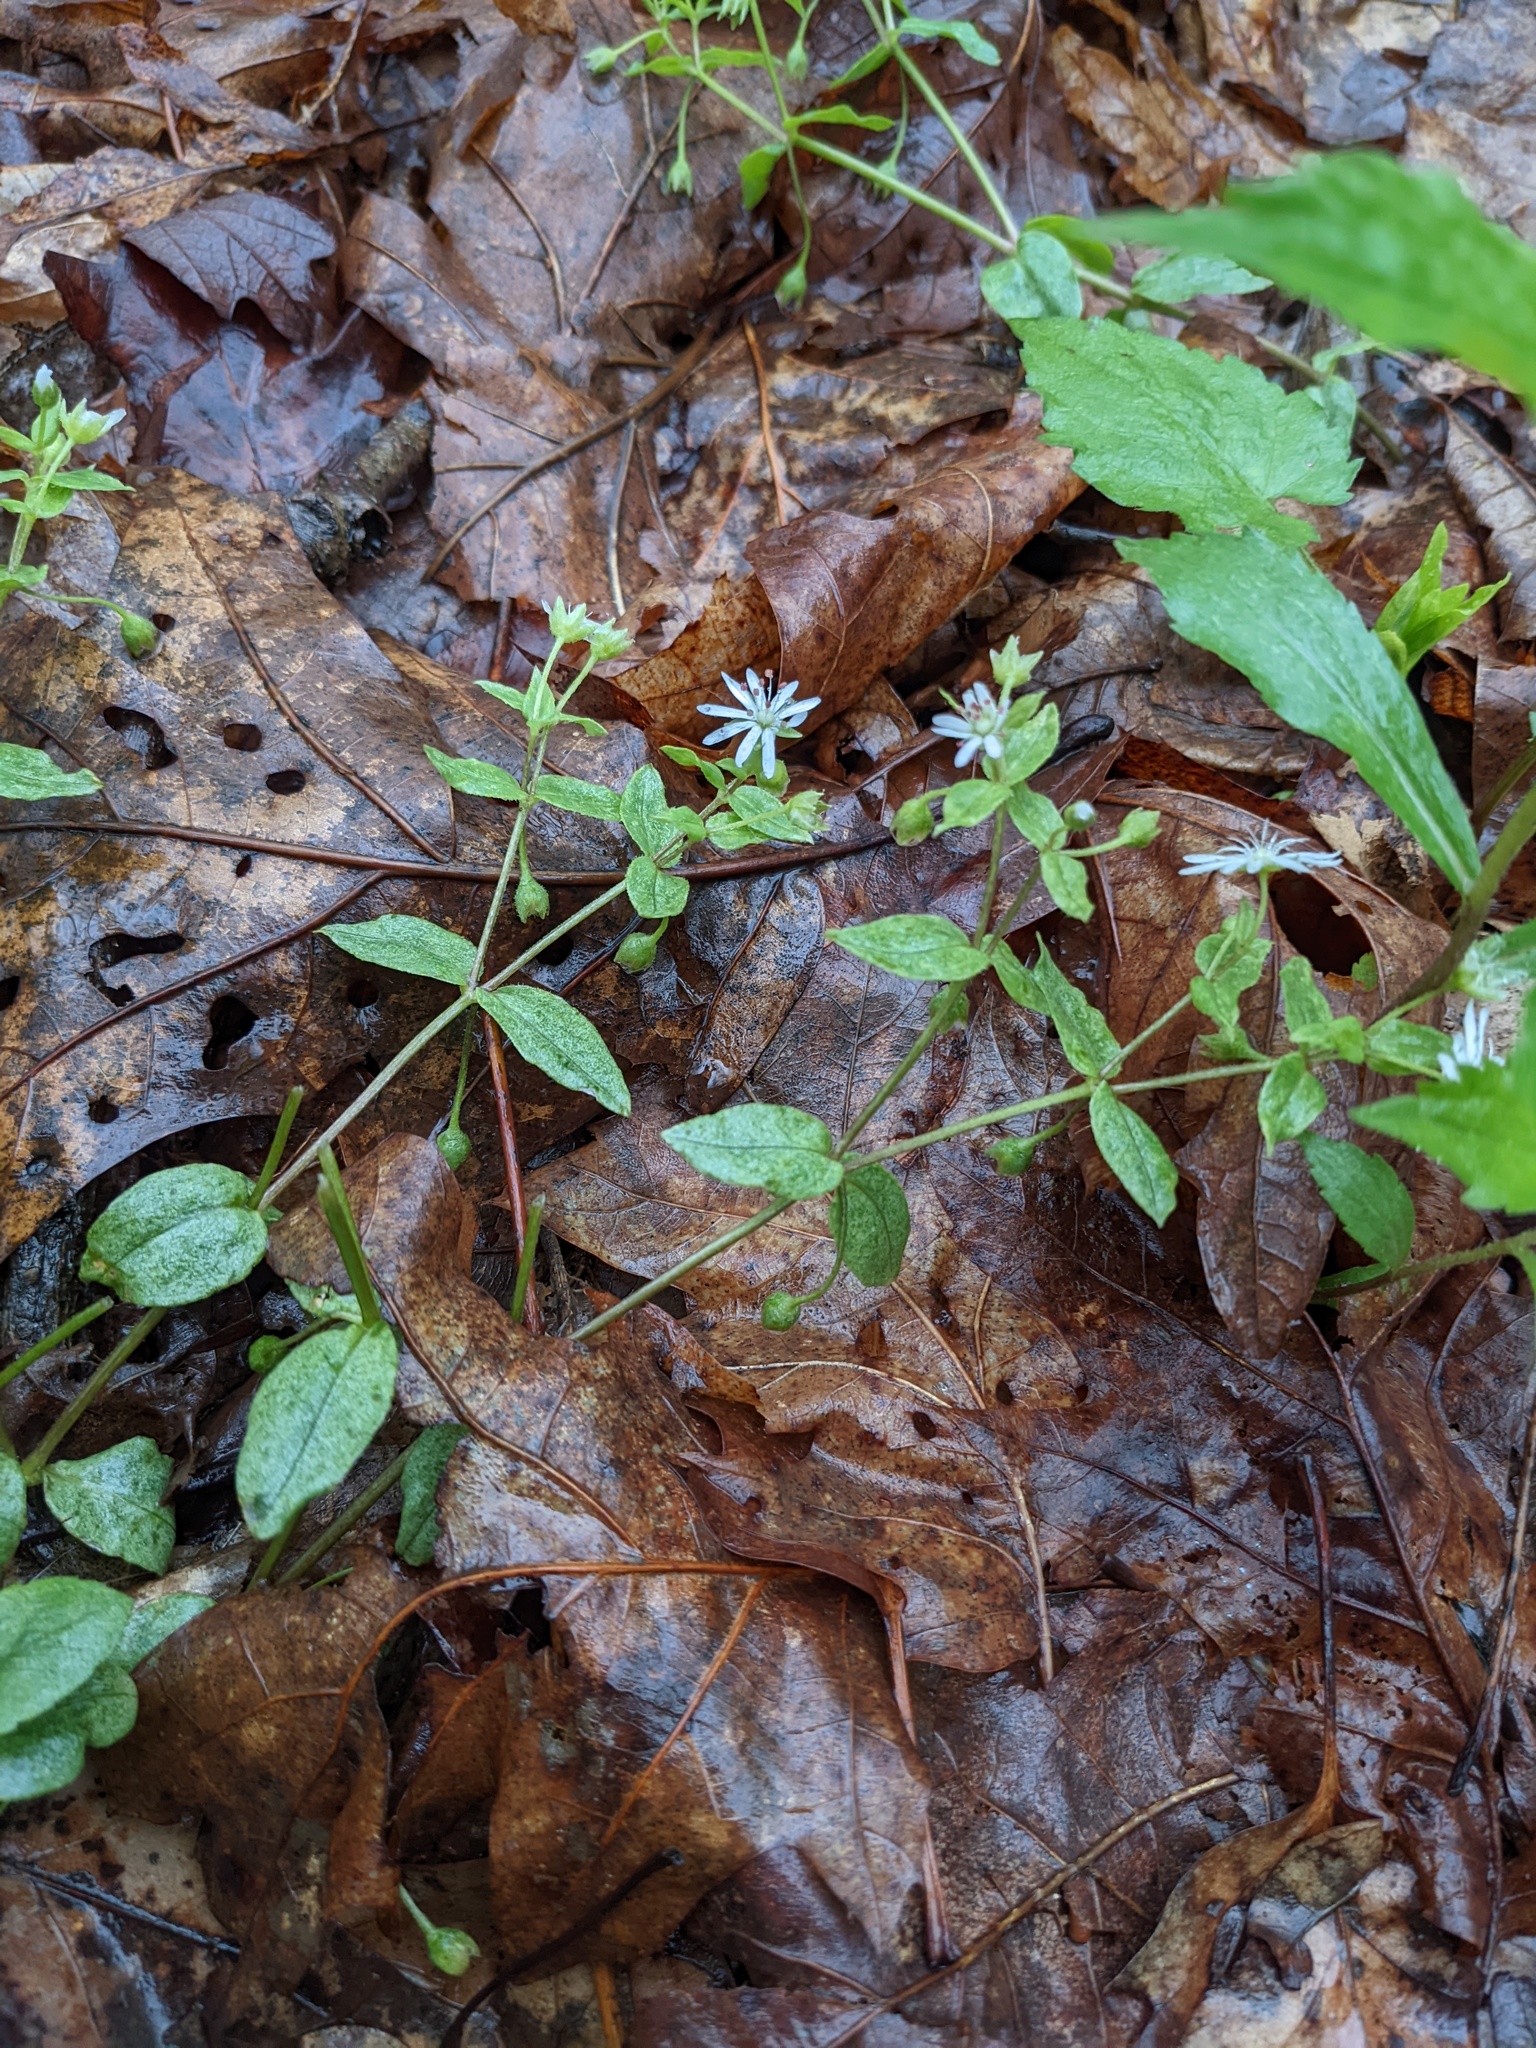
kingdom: Plantae
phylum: Tracheophyta
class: Magnoliopsida
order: Caryophyllales
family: Caryophyllaceae
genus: Stellaria
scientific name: Stellaria pubera
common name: Star chickweed
